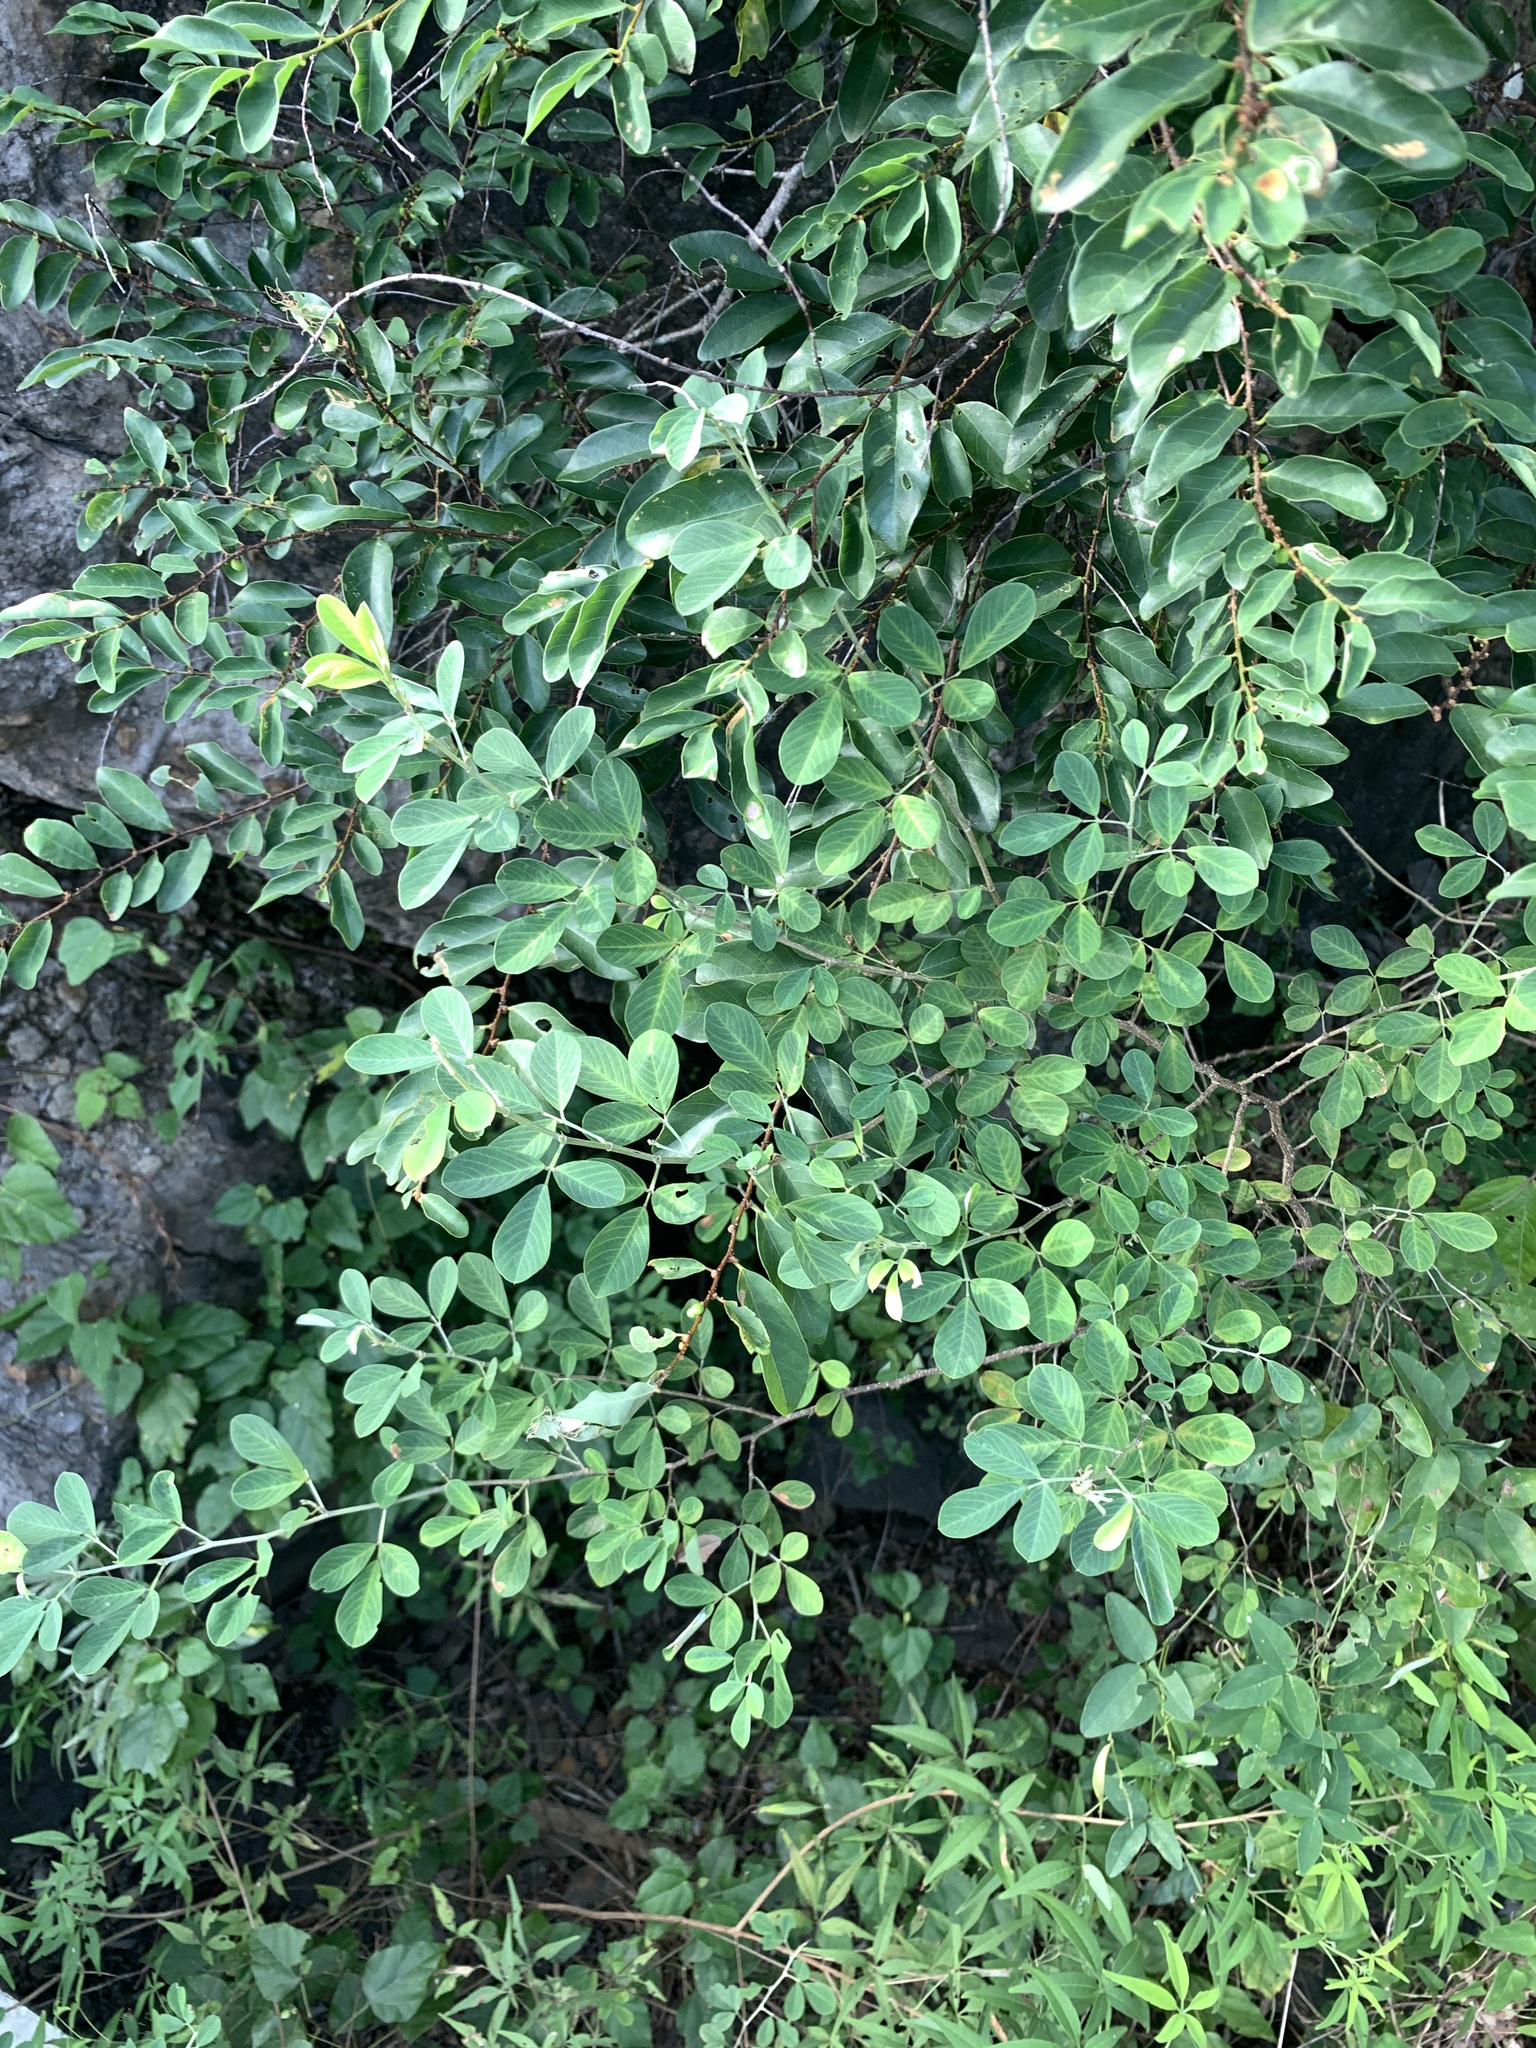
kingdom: Plantae
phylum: Tracheophyta
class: Magnoliopsida
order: Fabales
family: Fabaceae
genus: Dendrolobium
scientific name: Dendrolobium umbellatum
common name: Horsebush
